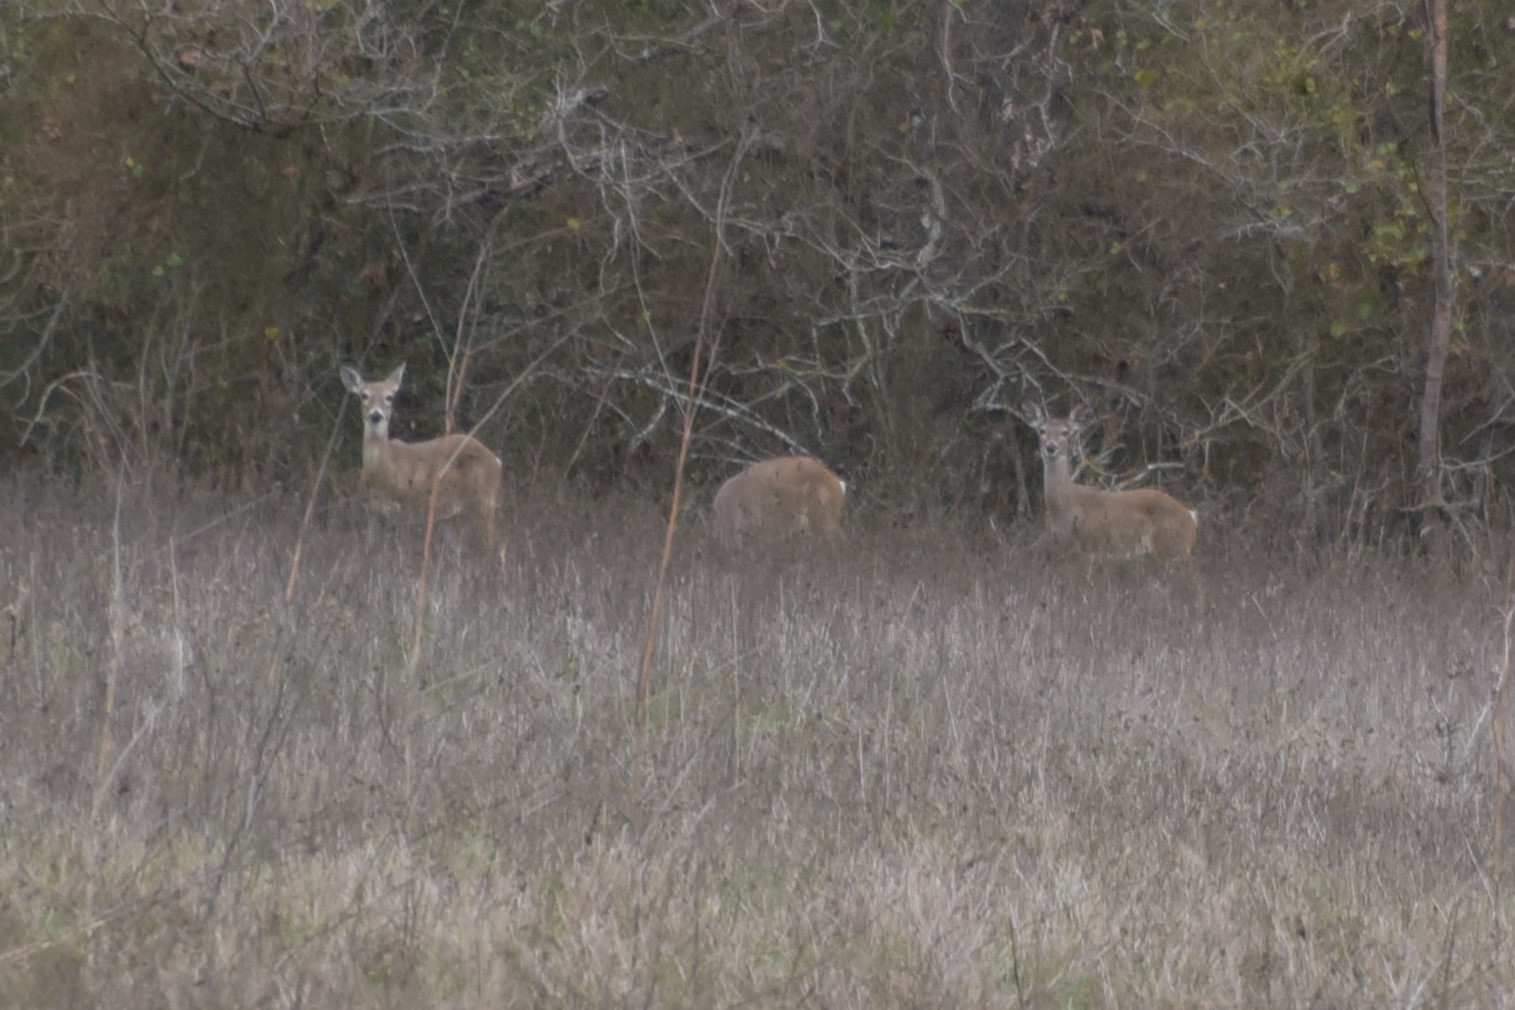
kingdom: Animalia
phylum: Chordata
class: Mammalia
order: Artiodactyla
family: Cervidae
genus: Odocoileus
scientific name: Odocoileus virginianus
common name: White-tailed deer
